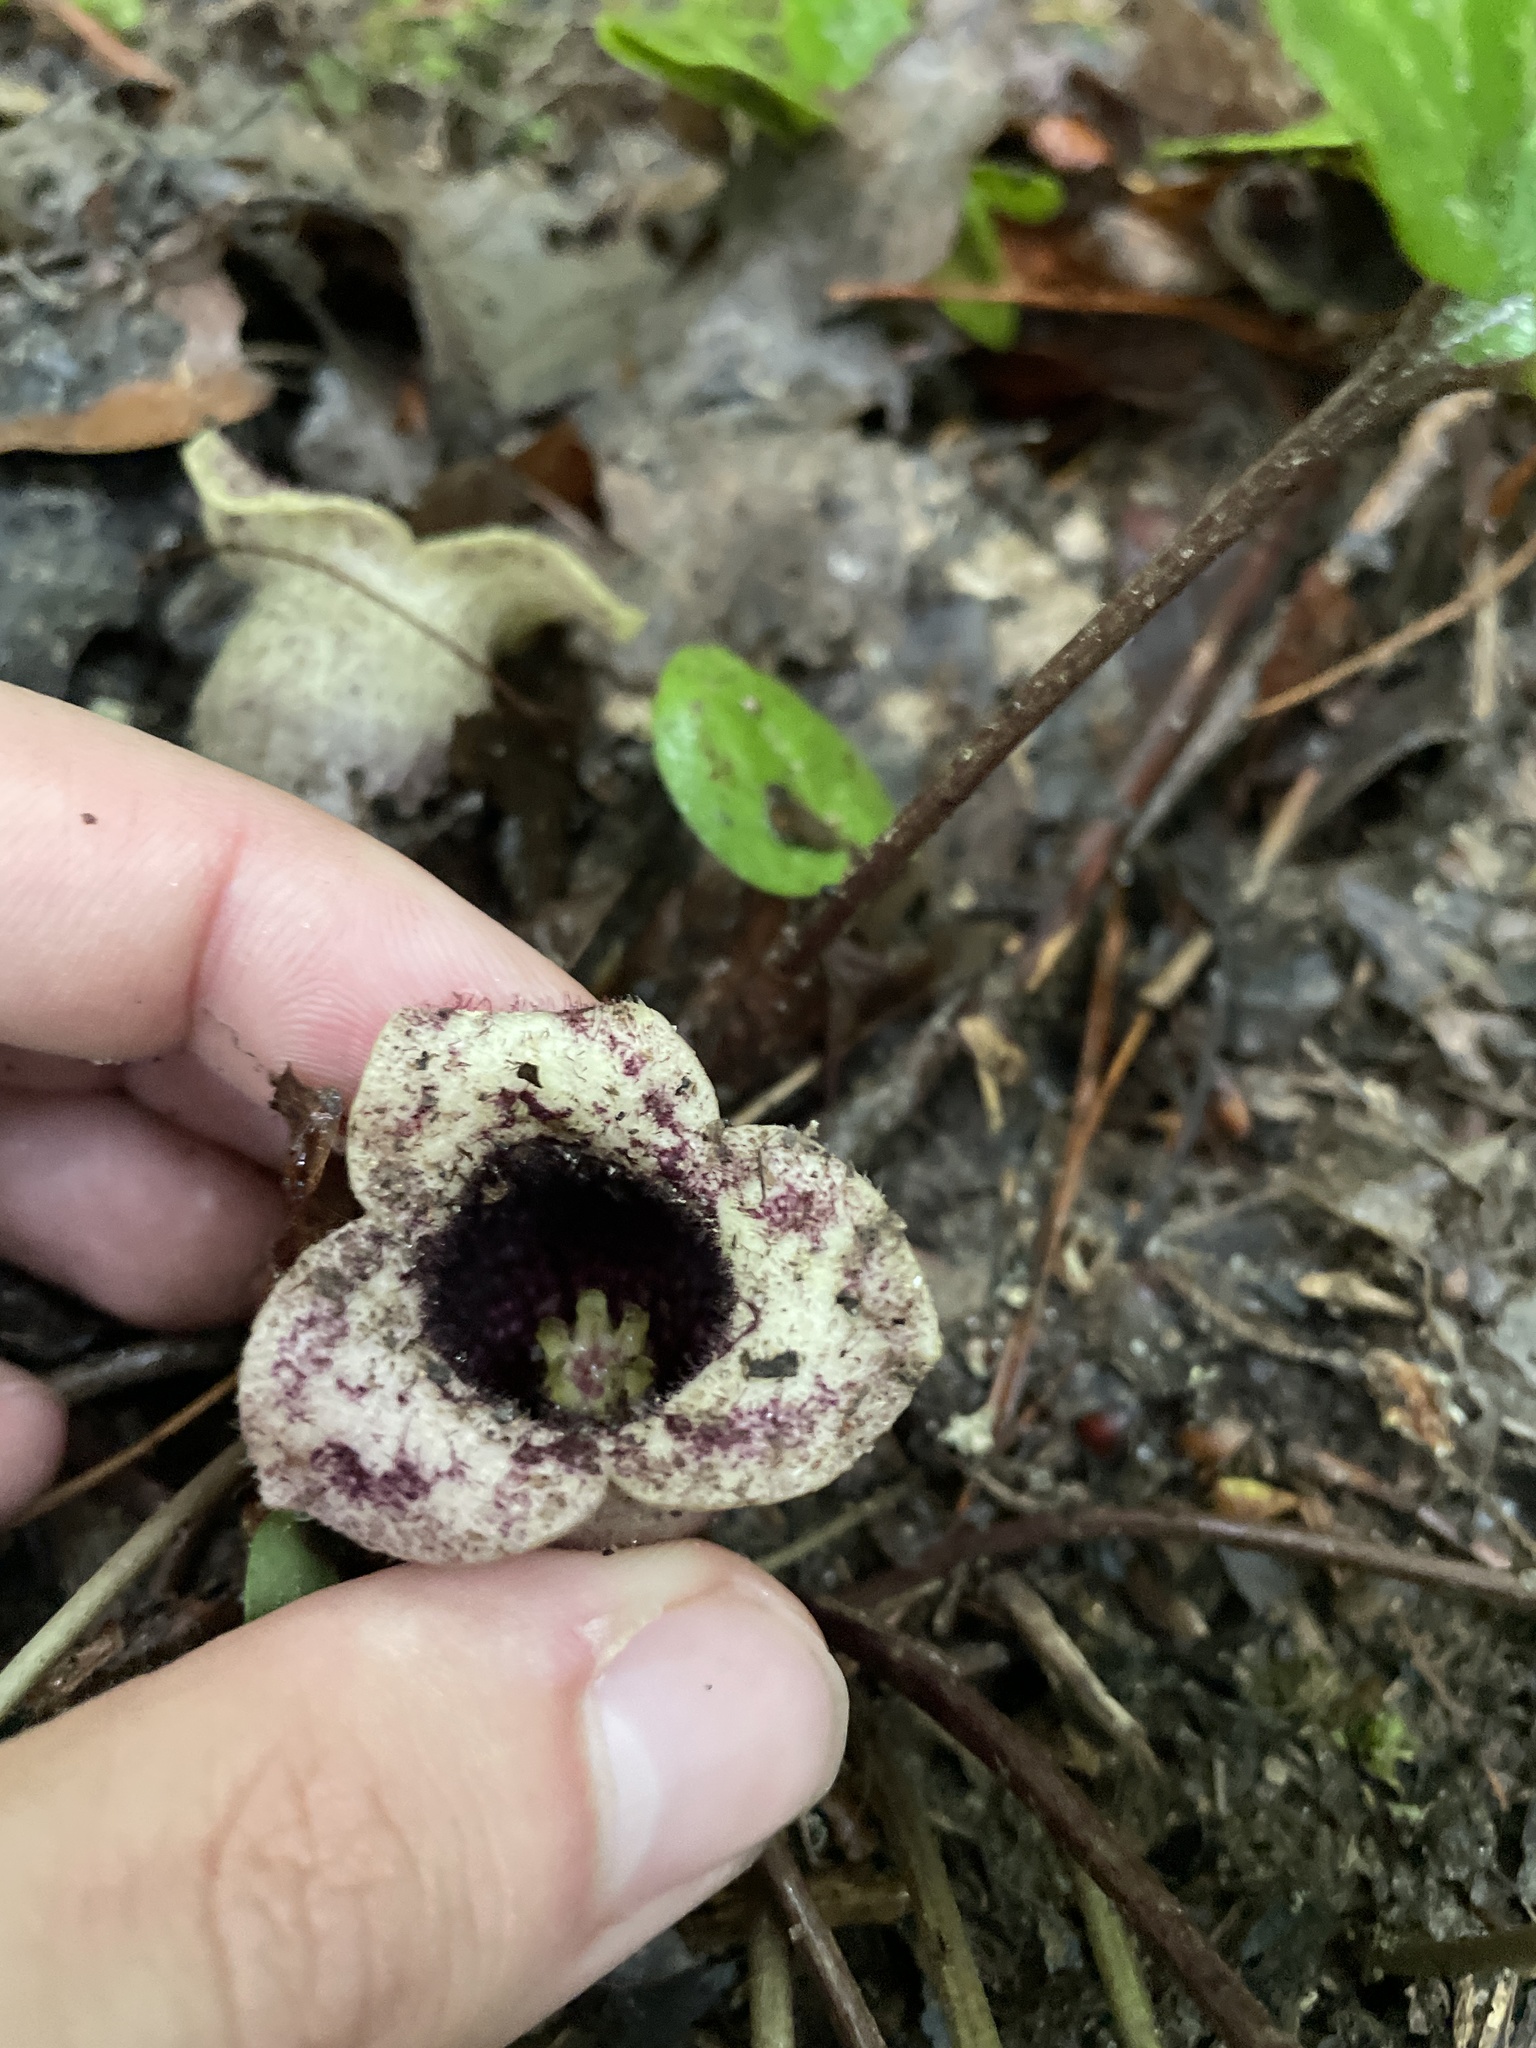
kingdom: Plantae
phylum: Tracheophyta
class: Magnoliopsida
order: Piperales
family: Aristolochiaceae
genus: Hexastylis
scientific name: Hexastylis shuttleworthii
